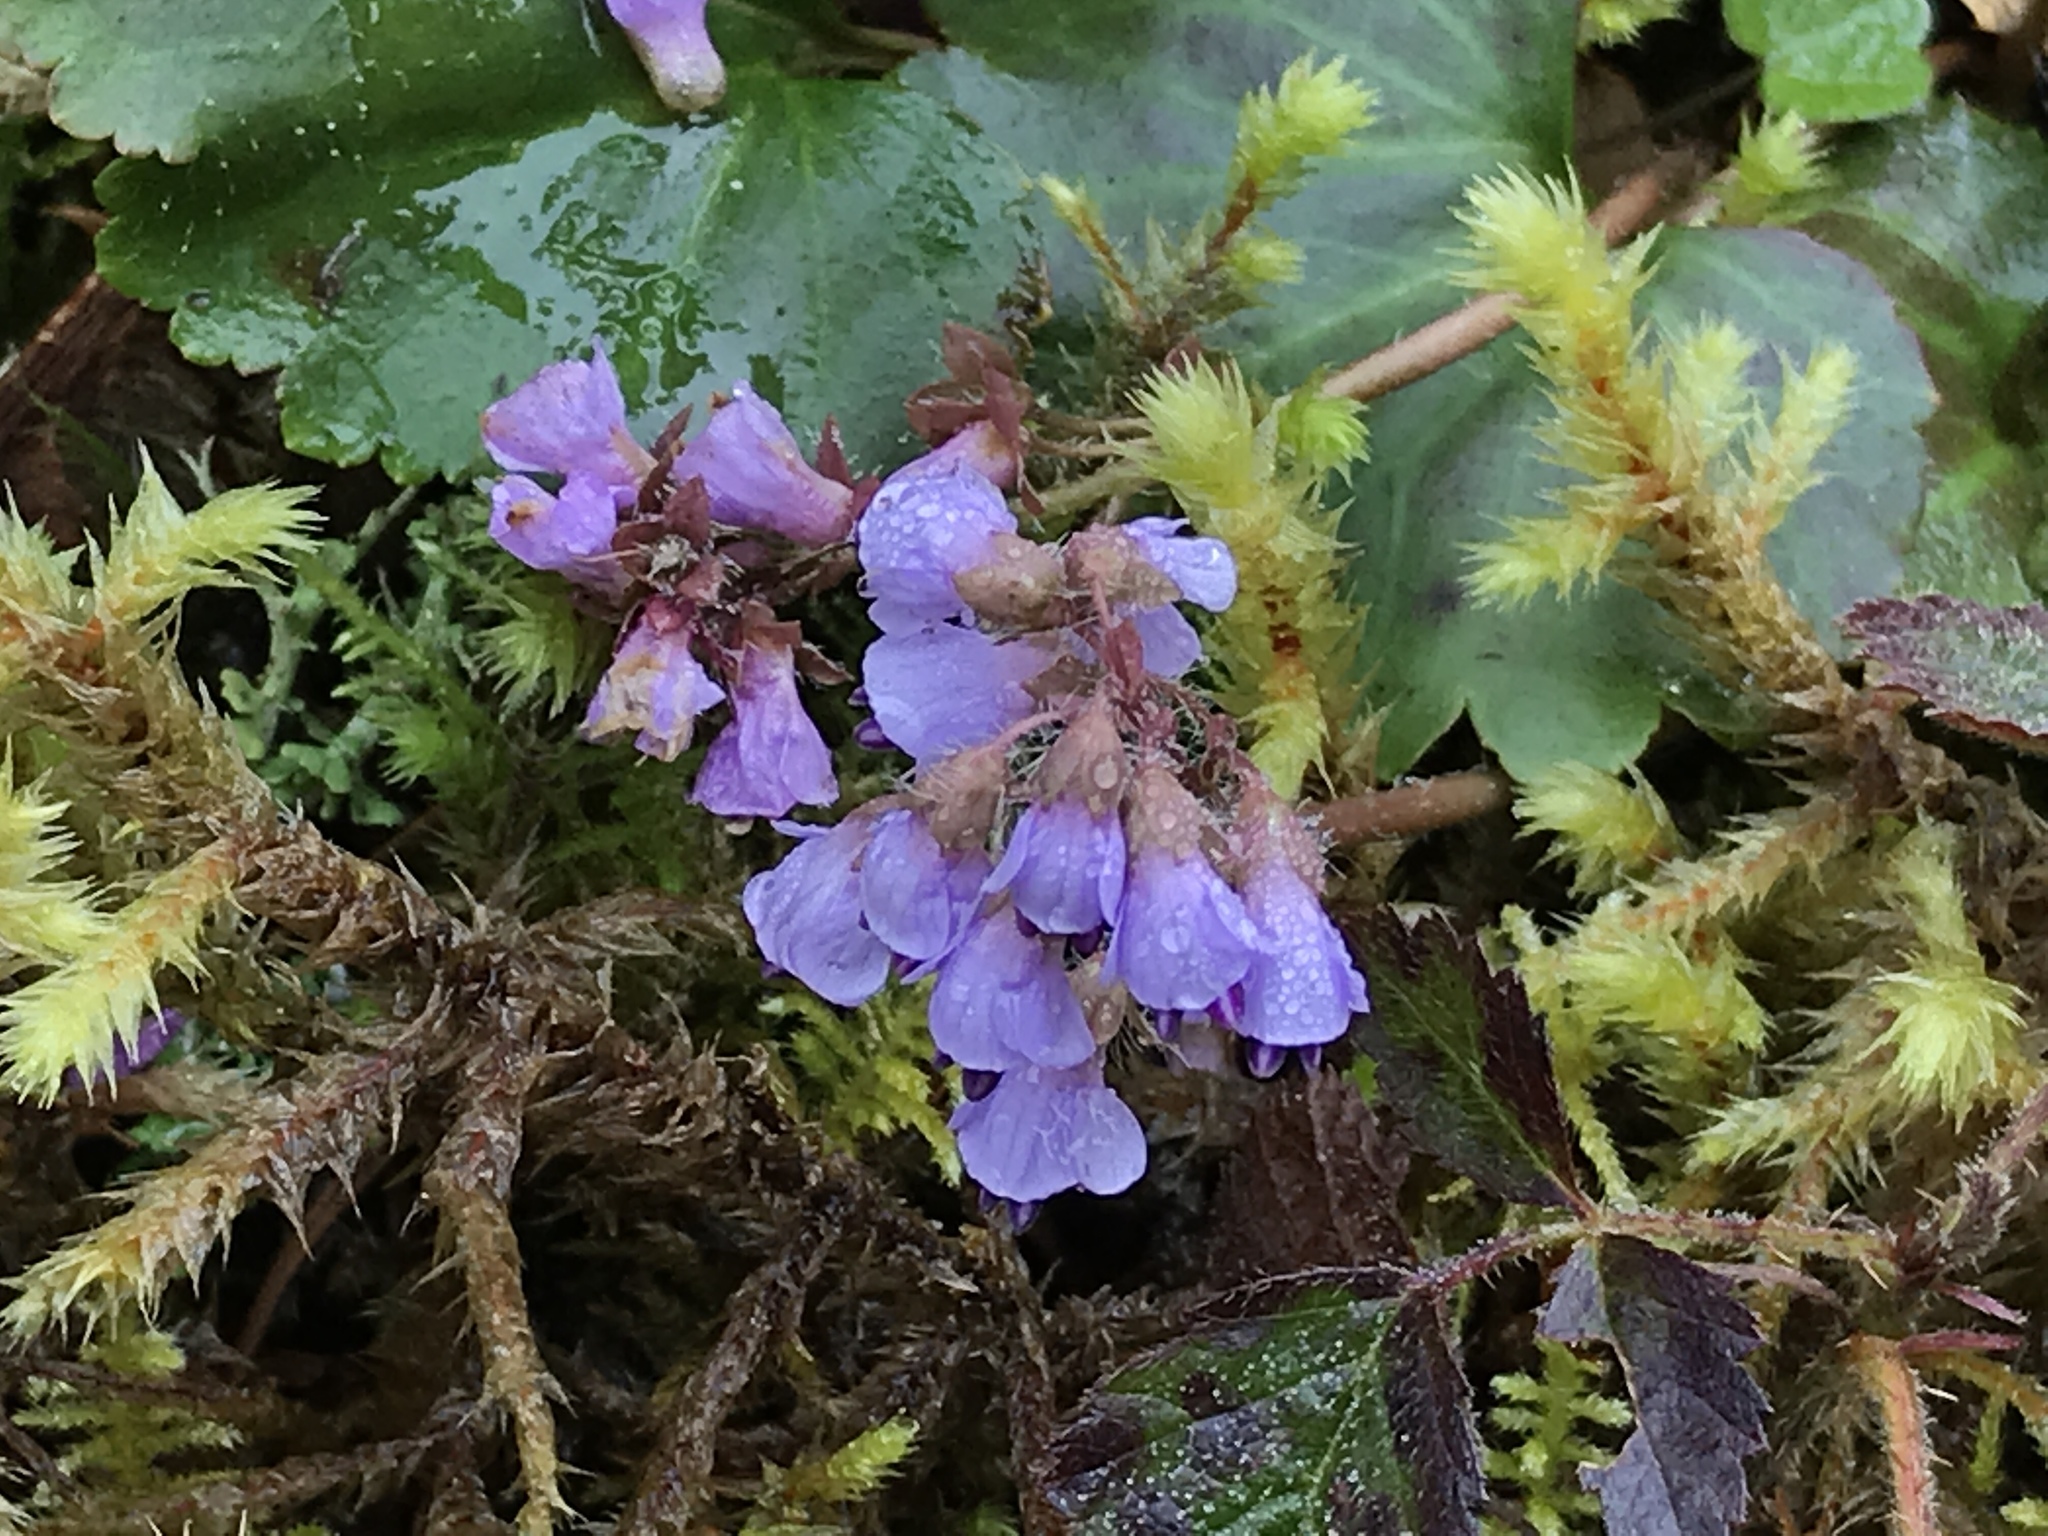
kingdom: Plantae
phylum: Tracheophyta
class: Magnoliopsida
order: Lamiales
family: Plantaginaceae
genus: Synthyris
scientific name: Synthyris reniformis
